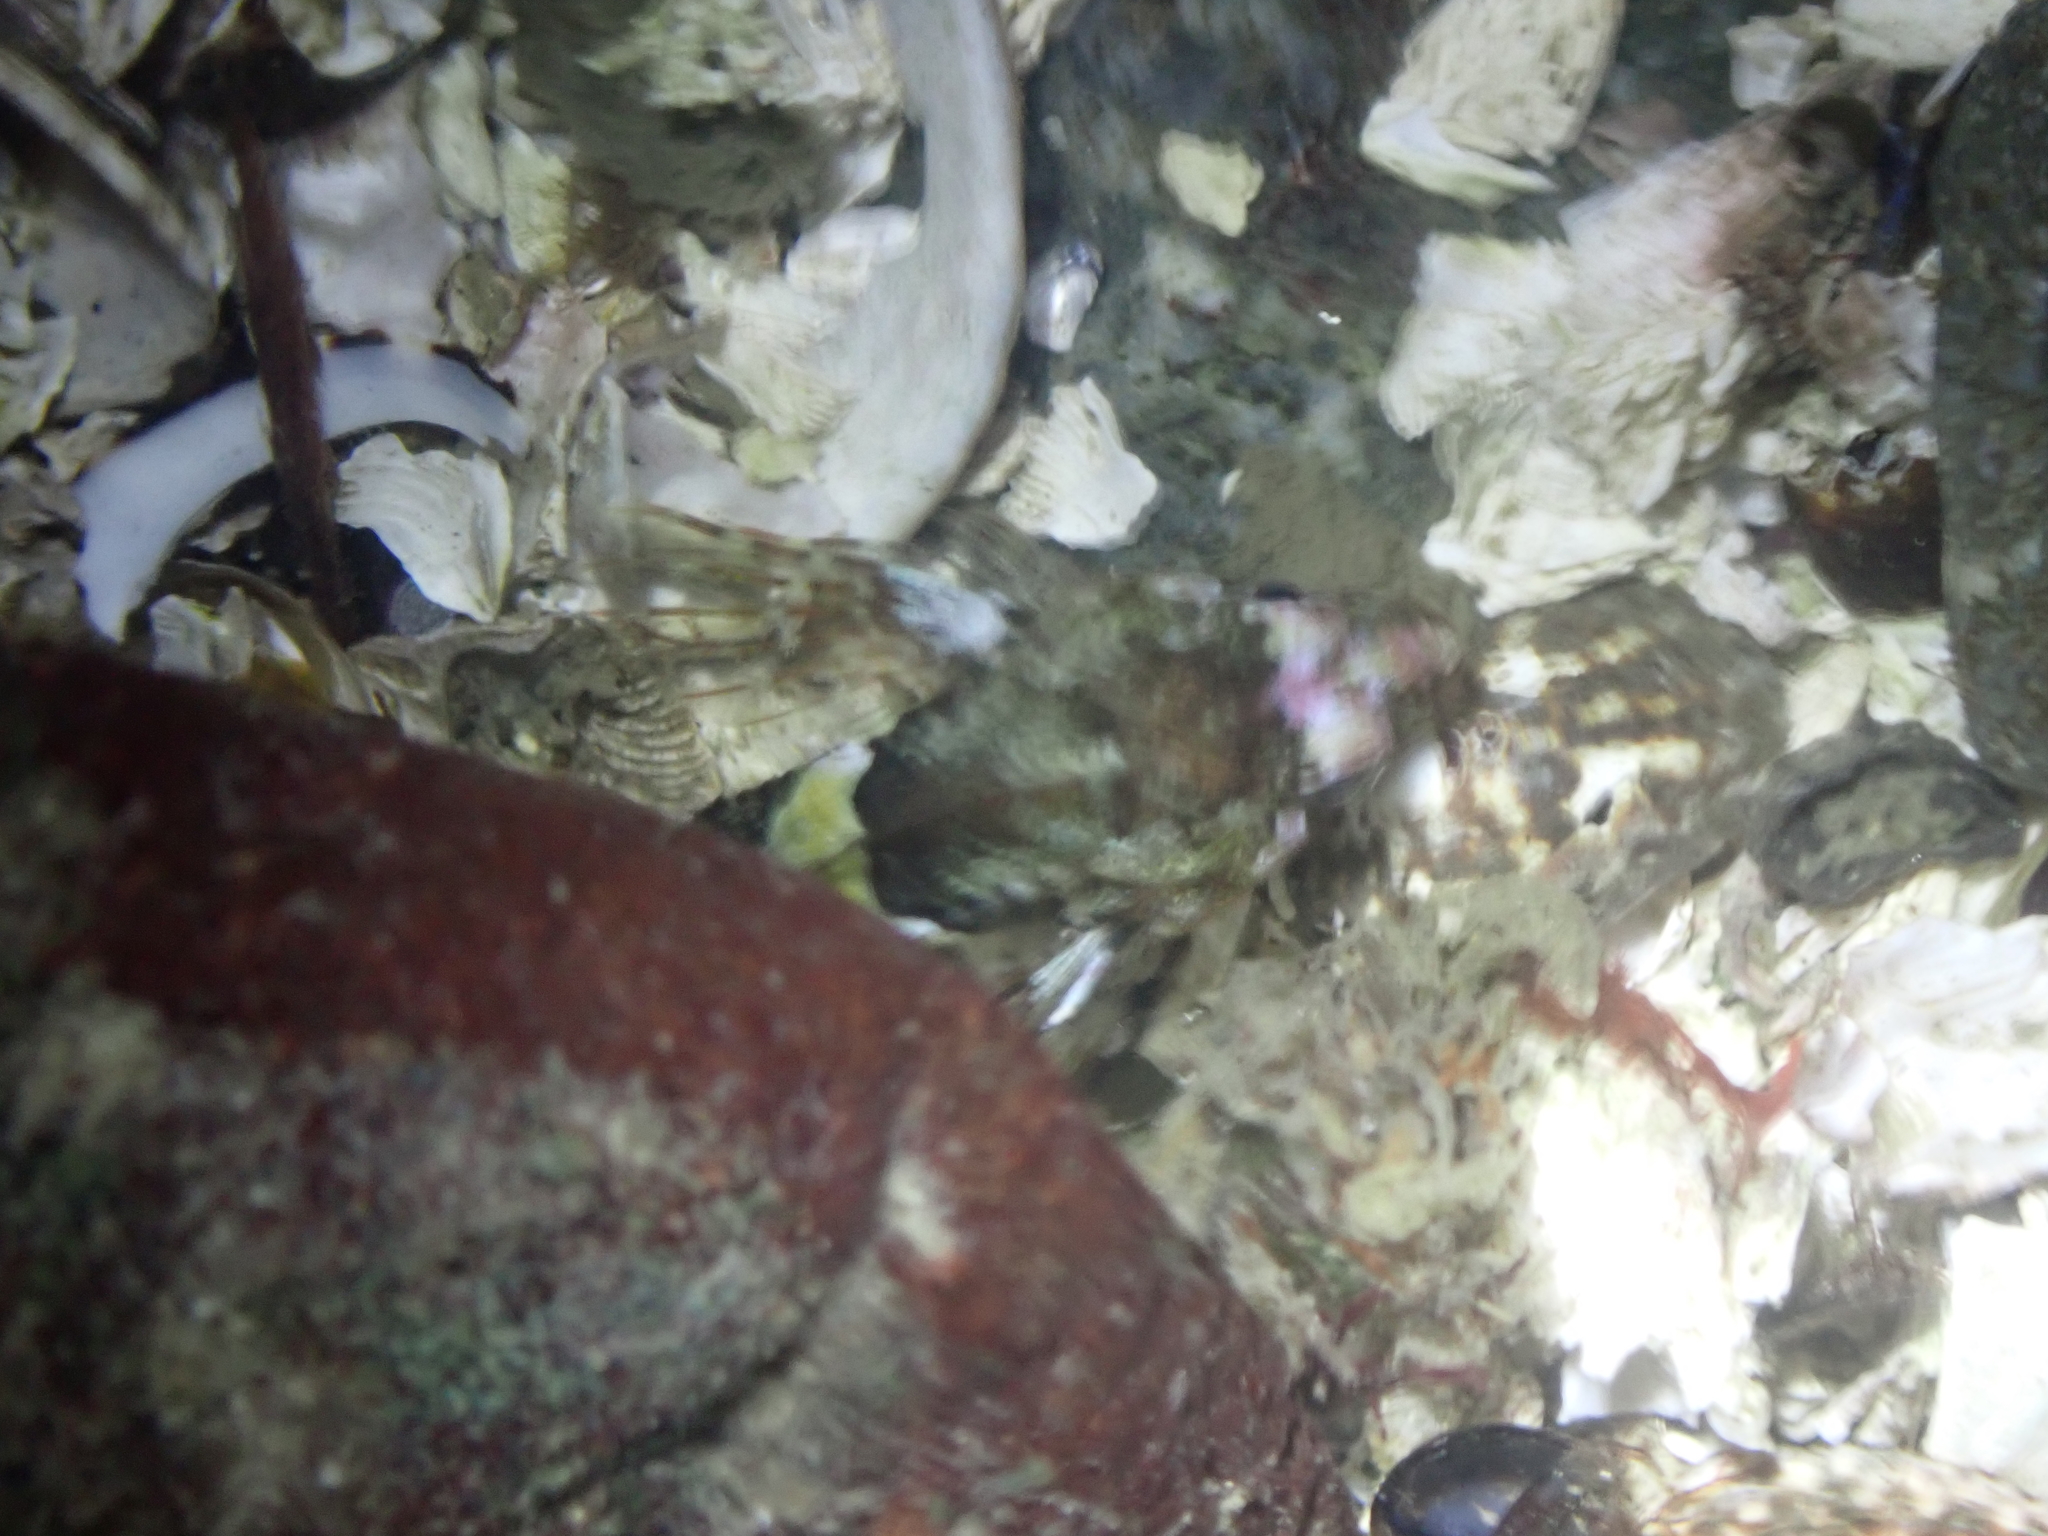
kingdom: Animalia
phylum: Chordata
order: Scorpaeniformes
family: Cottidae
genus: Oligocottus
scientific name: Oligocottus maculosus
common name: Tidepool sculpin
